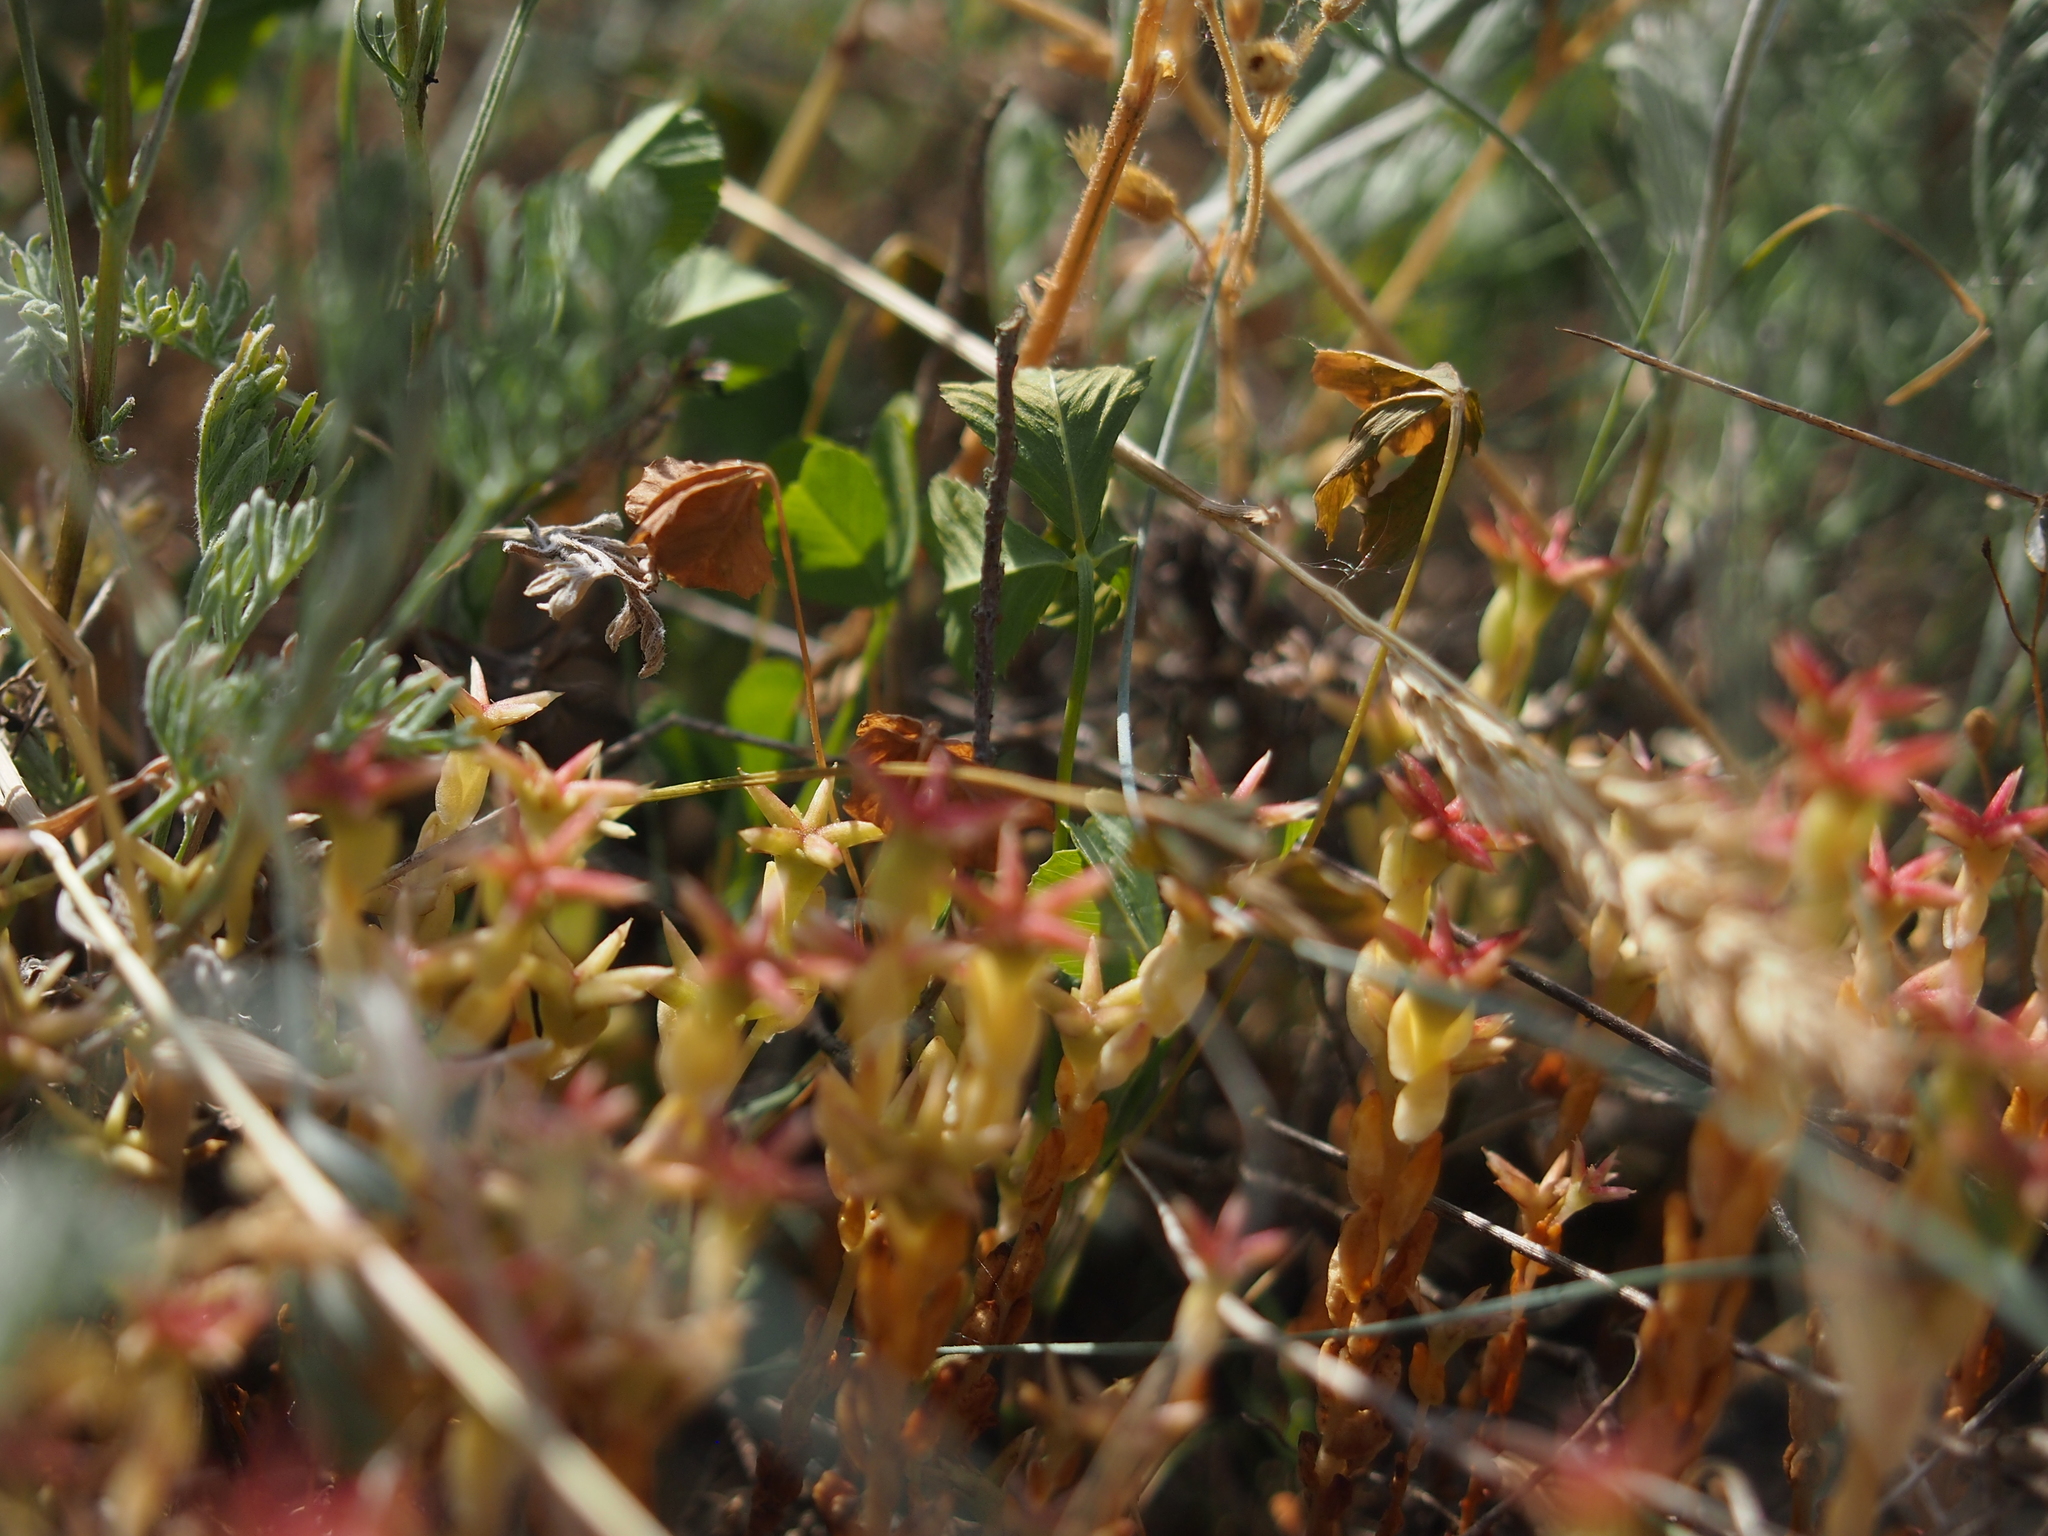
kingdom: Plantae
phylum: Tracheophyta
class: Magnoliopsida
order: Saxifragales
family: Crassulaceae
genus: Sedum
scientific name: Sedum cespitosum
